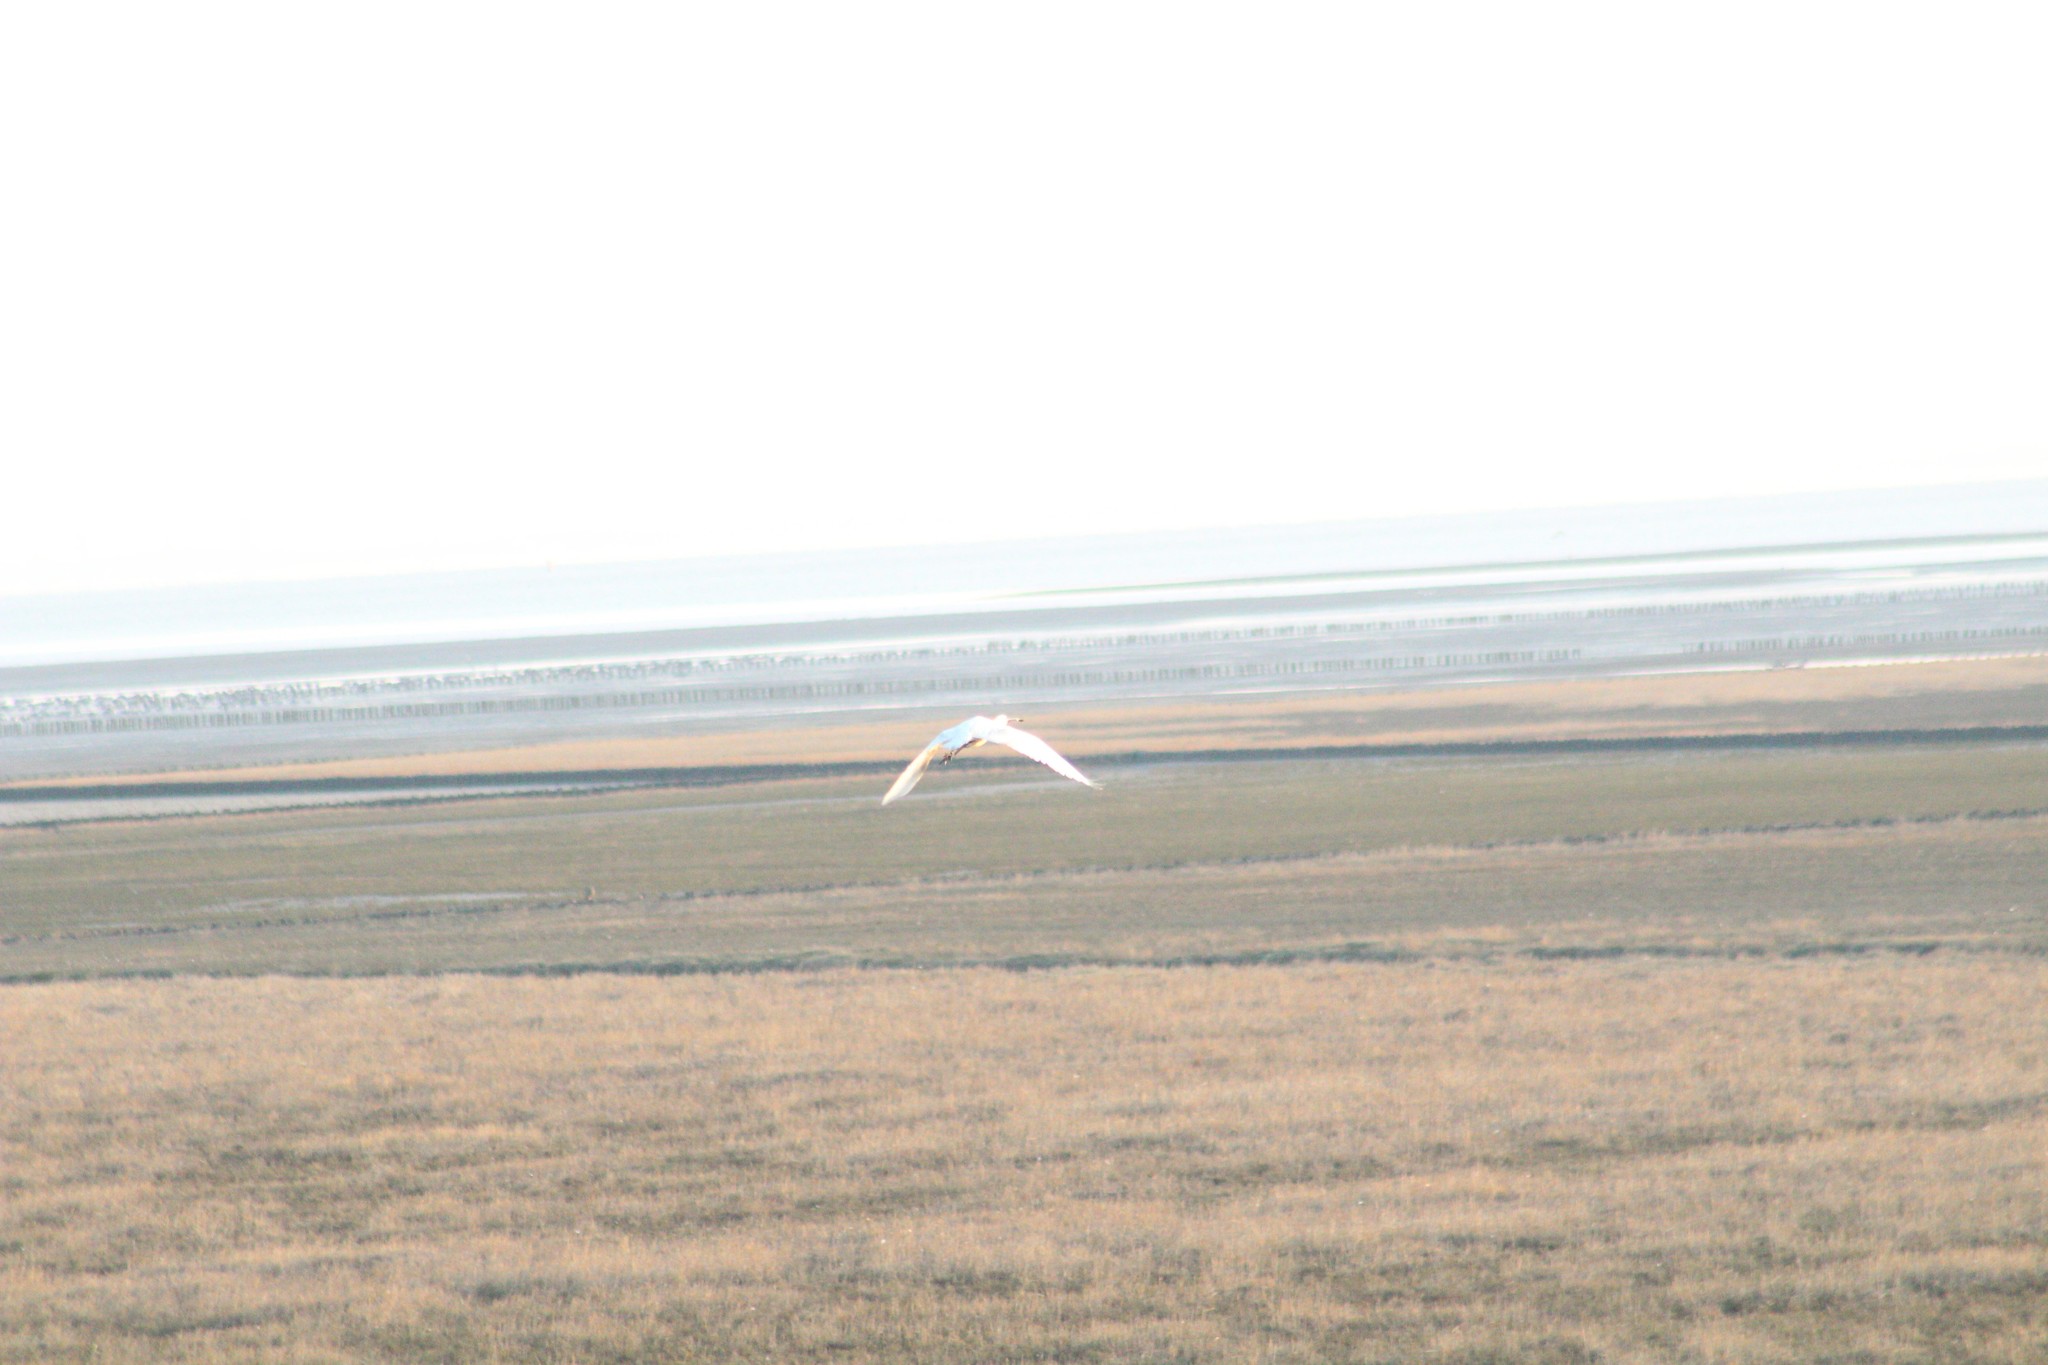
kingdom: Animalia
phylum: Chordata
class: Aves
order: Pelecaniformes
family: Threskiornithidae
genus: Platalea
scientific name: Platalea leucorodia
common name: Eurasian spoonbill
